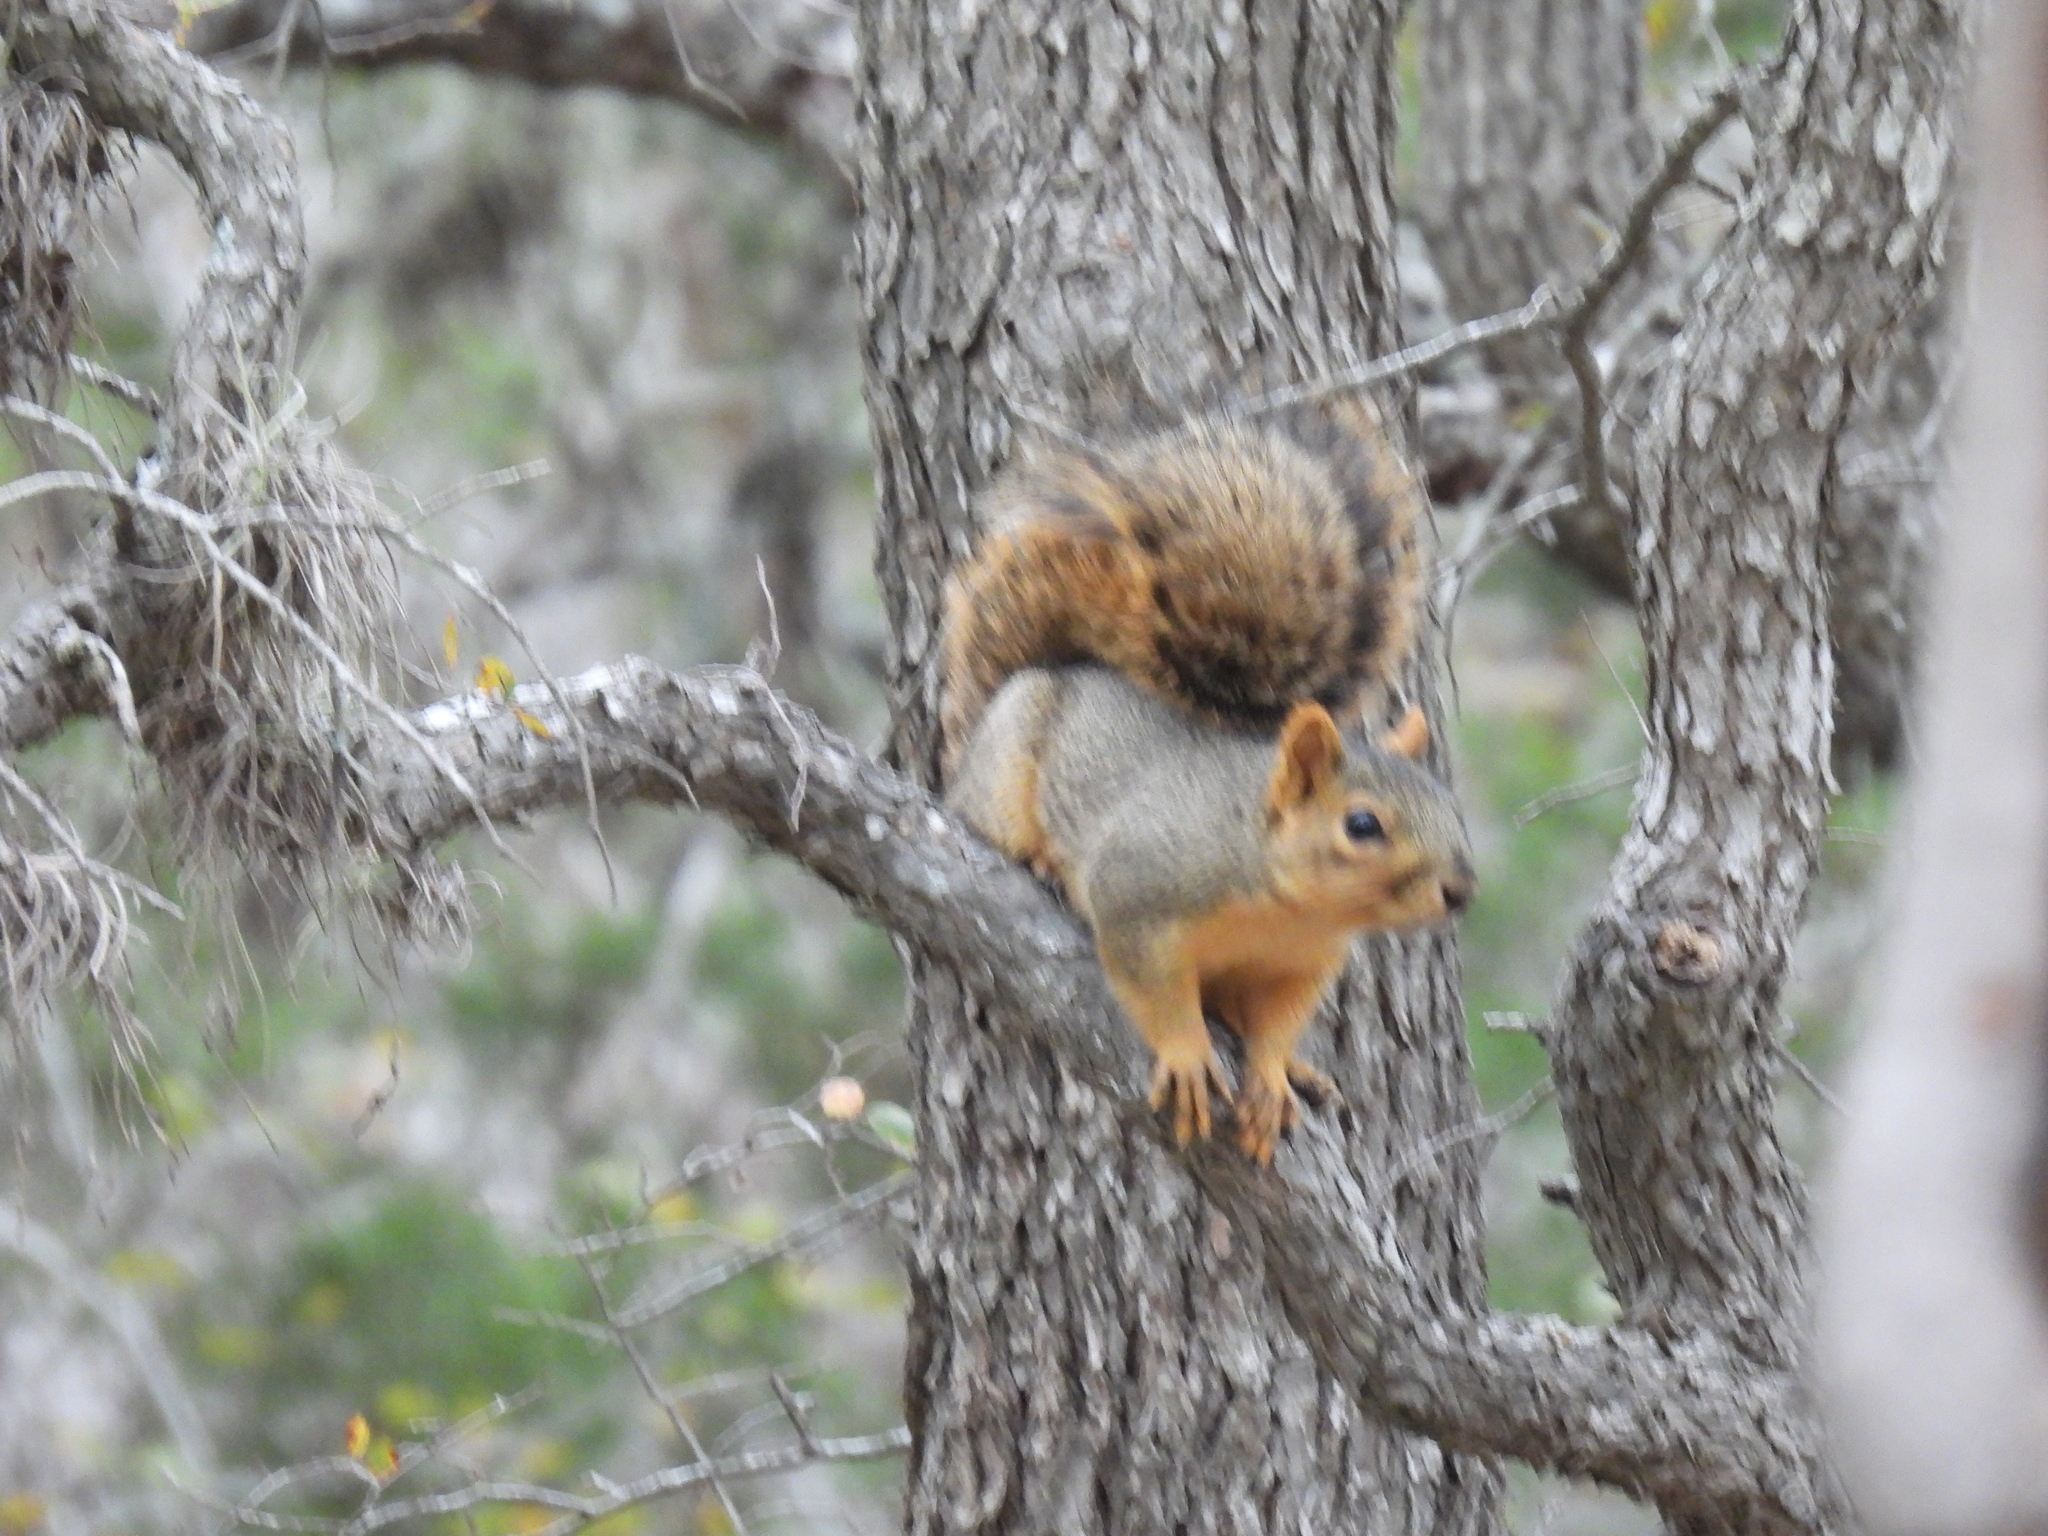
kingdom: Animalia
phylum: Chordata
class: Mammalia
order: Rodentia
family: Sciuridae
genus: Sciurus
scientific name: Sciurus niger
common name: Fox squirrel
